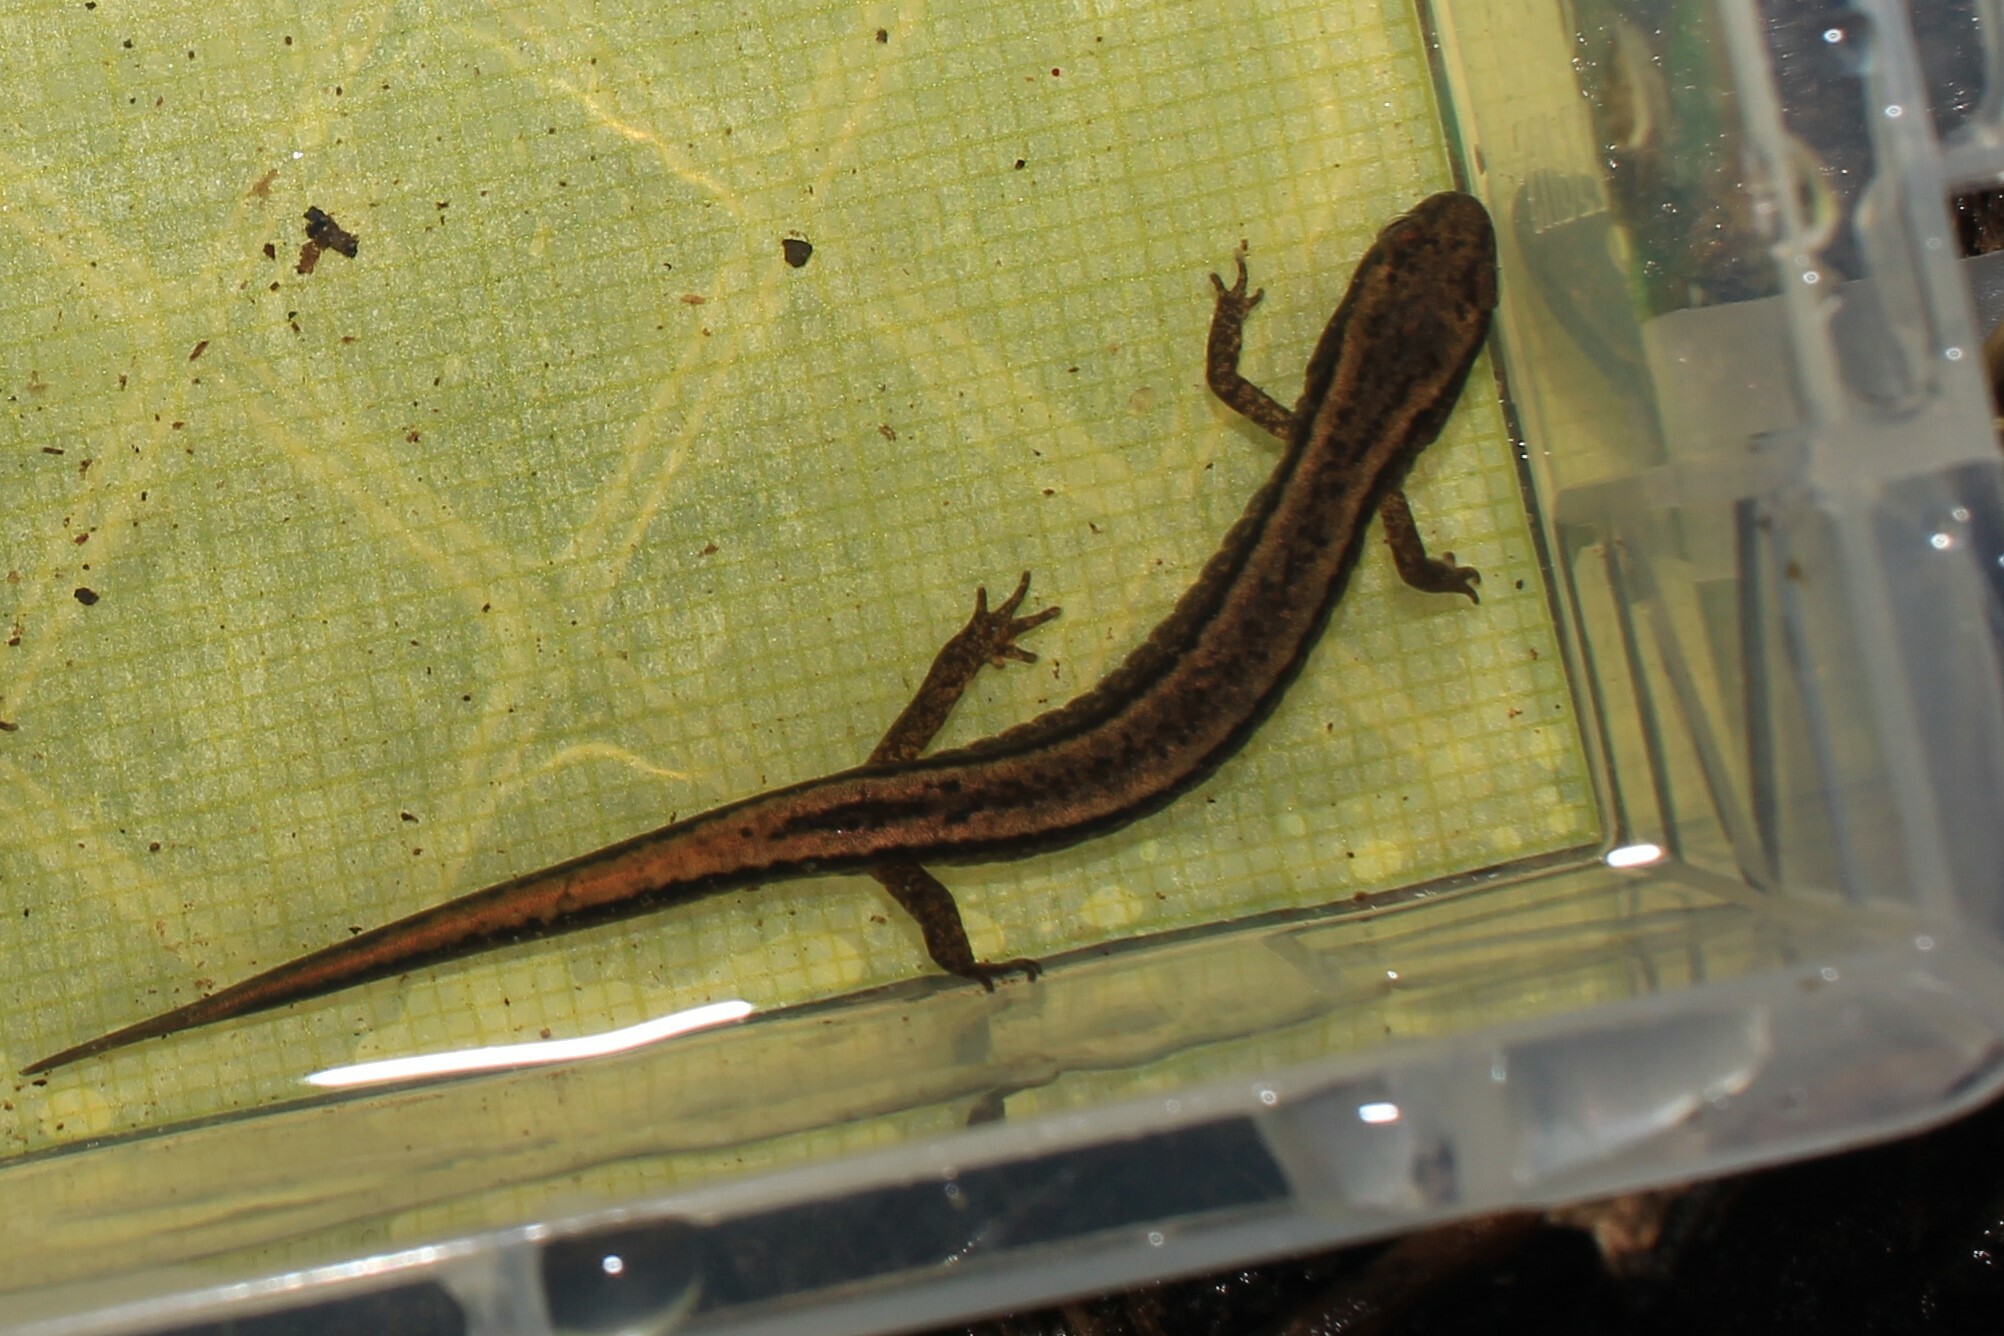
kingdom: Animalia
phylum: Chordata
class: Amphibia
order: Caudata
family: Plethodontidae
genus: Eurycea
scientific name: Eurycea bislineata
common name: Northern two-lined salamander
